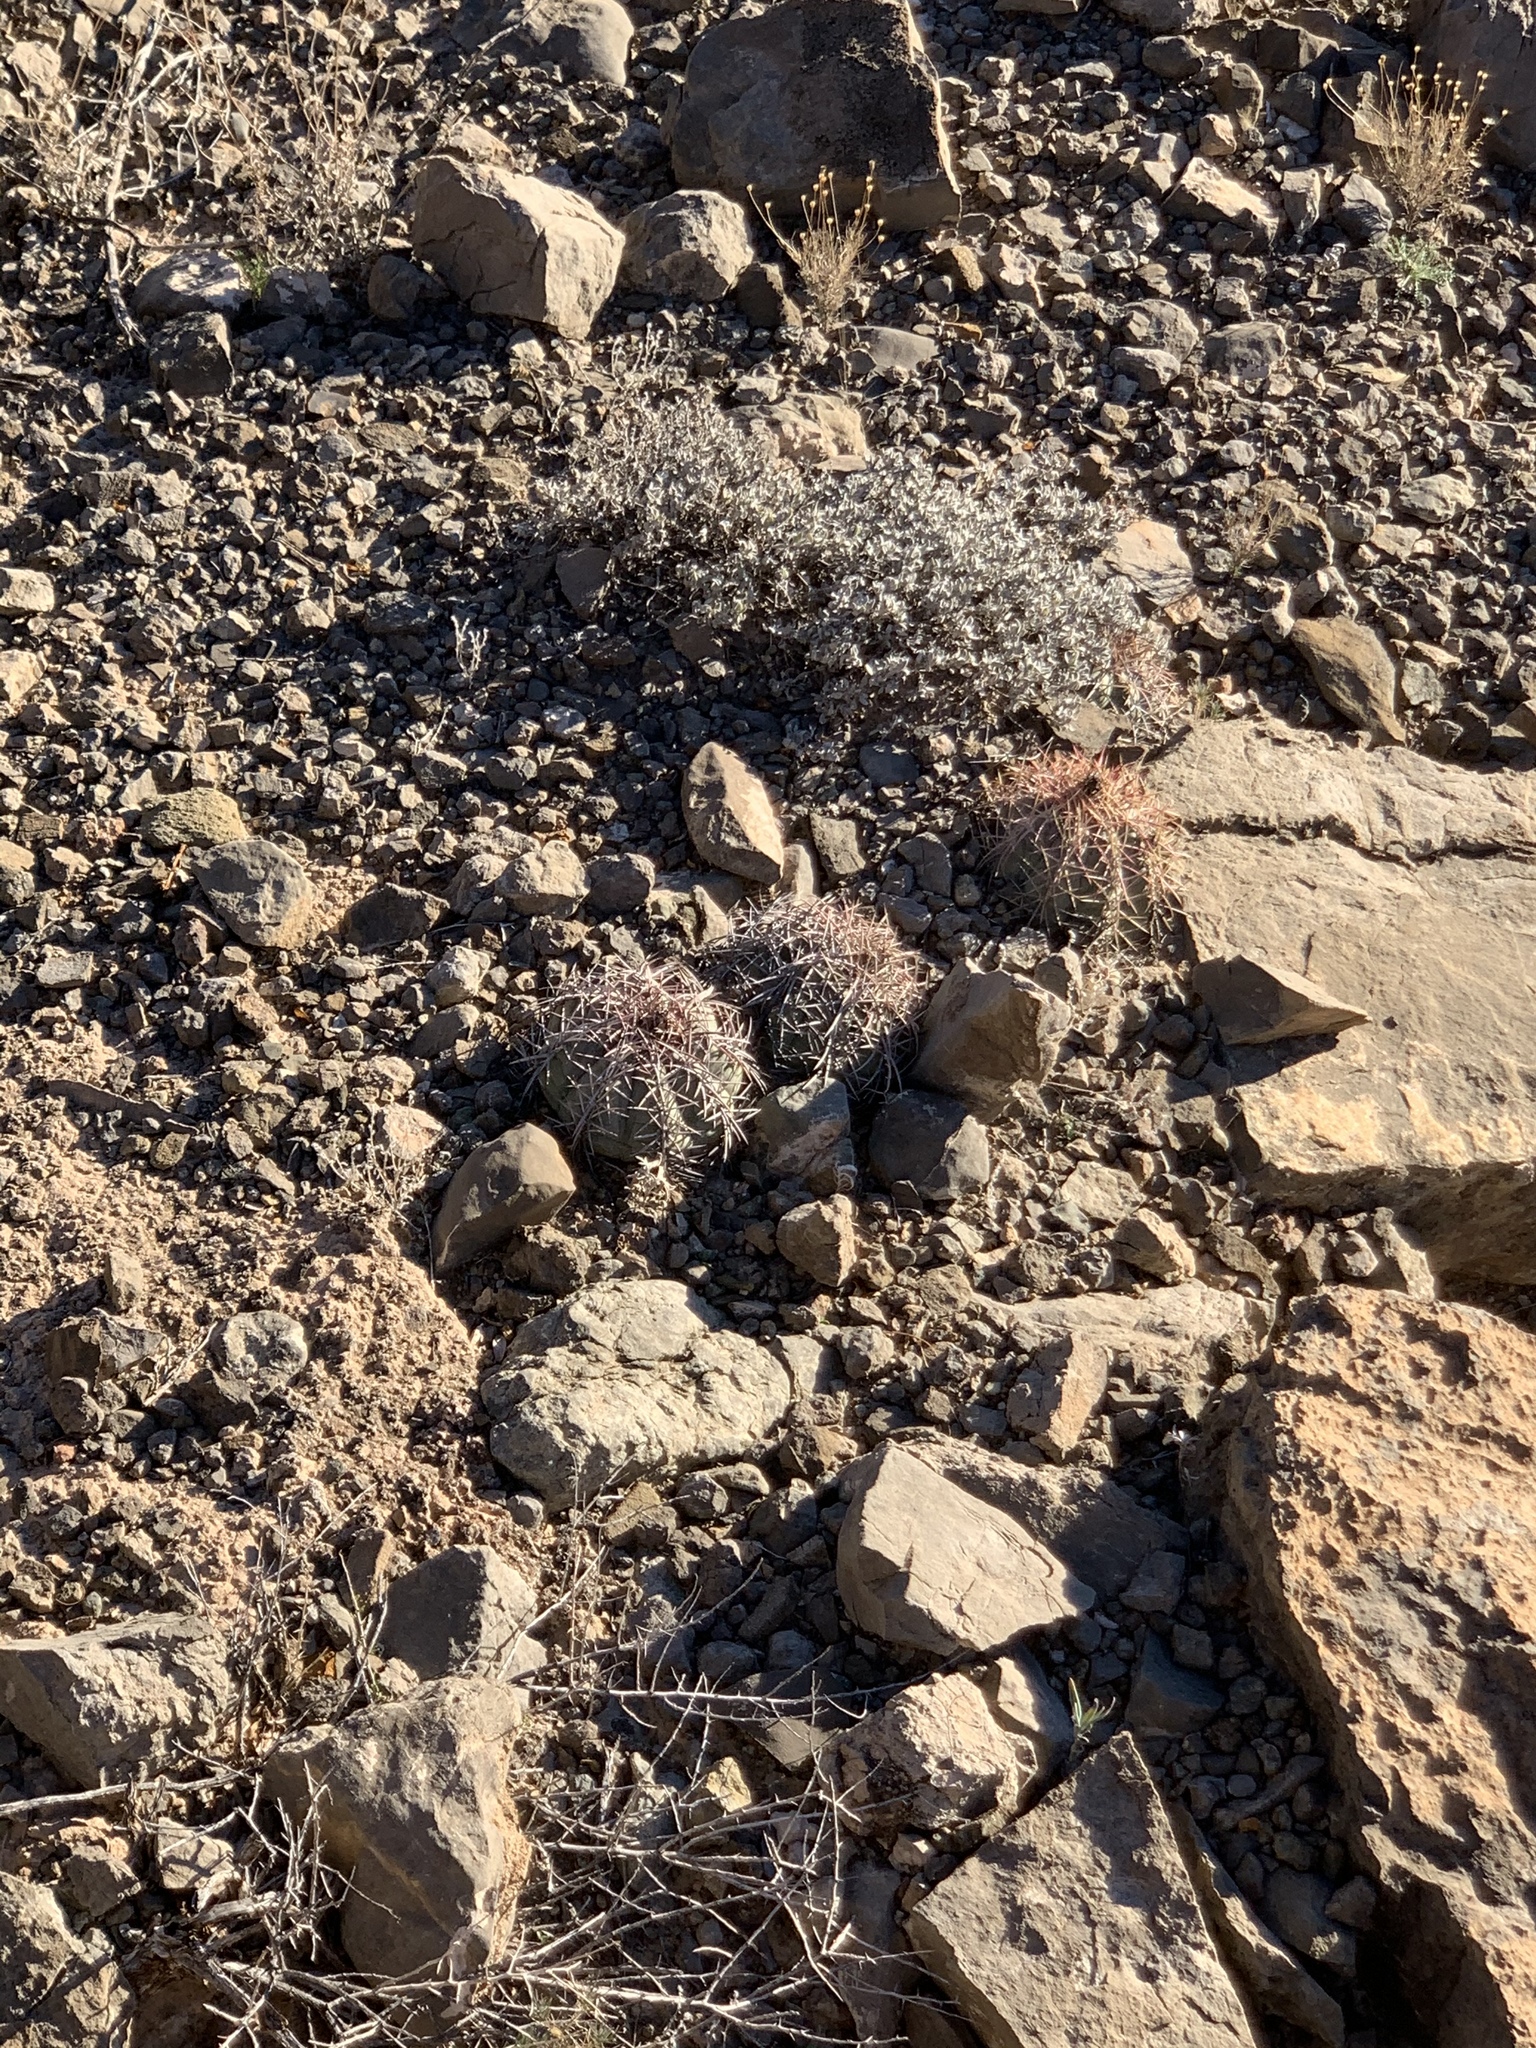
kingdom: Plantae
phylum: Tracheophyta
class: Magnoliopsida
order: Caryophyllales
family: Cactaceae
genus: Echinocactus
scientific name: Echinocactus horizonthalonius
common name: Devilshead
